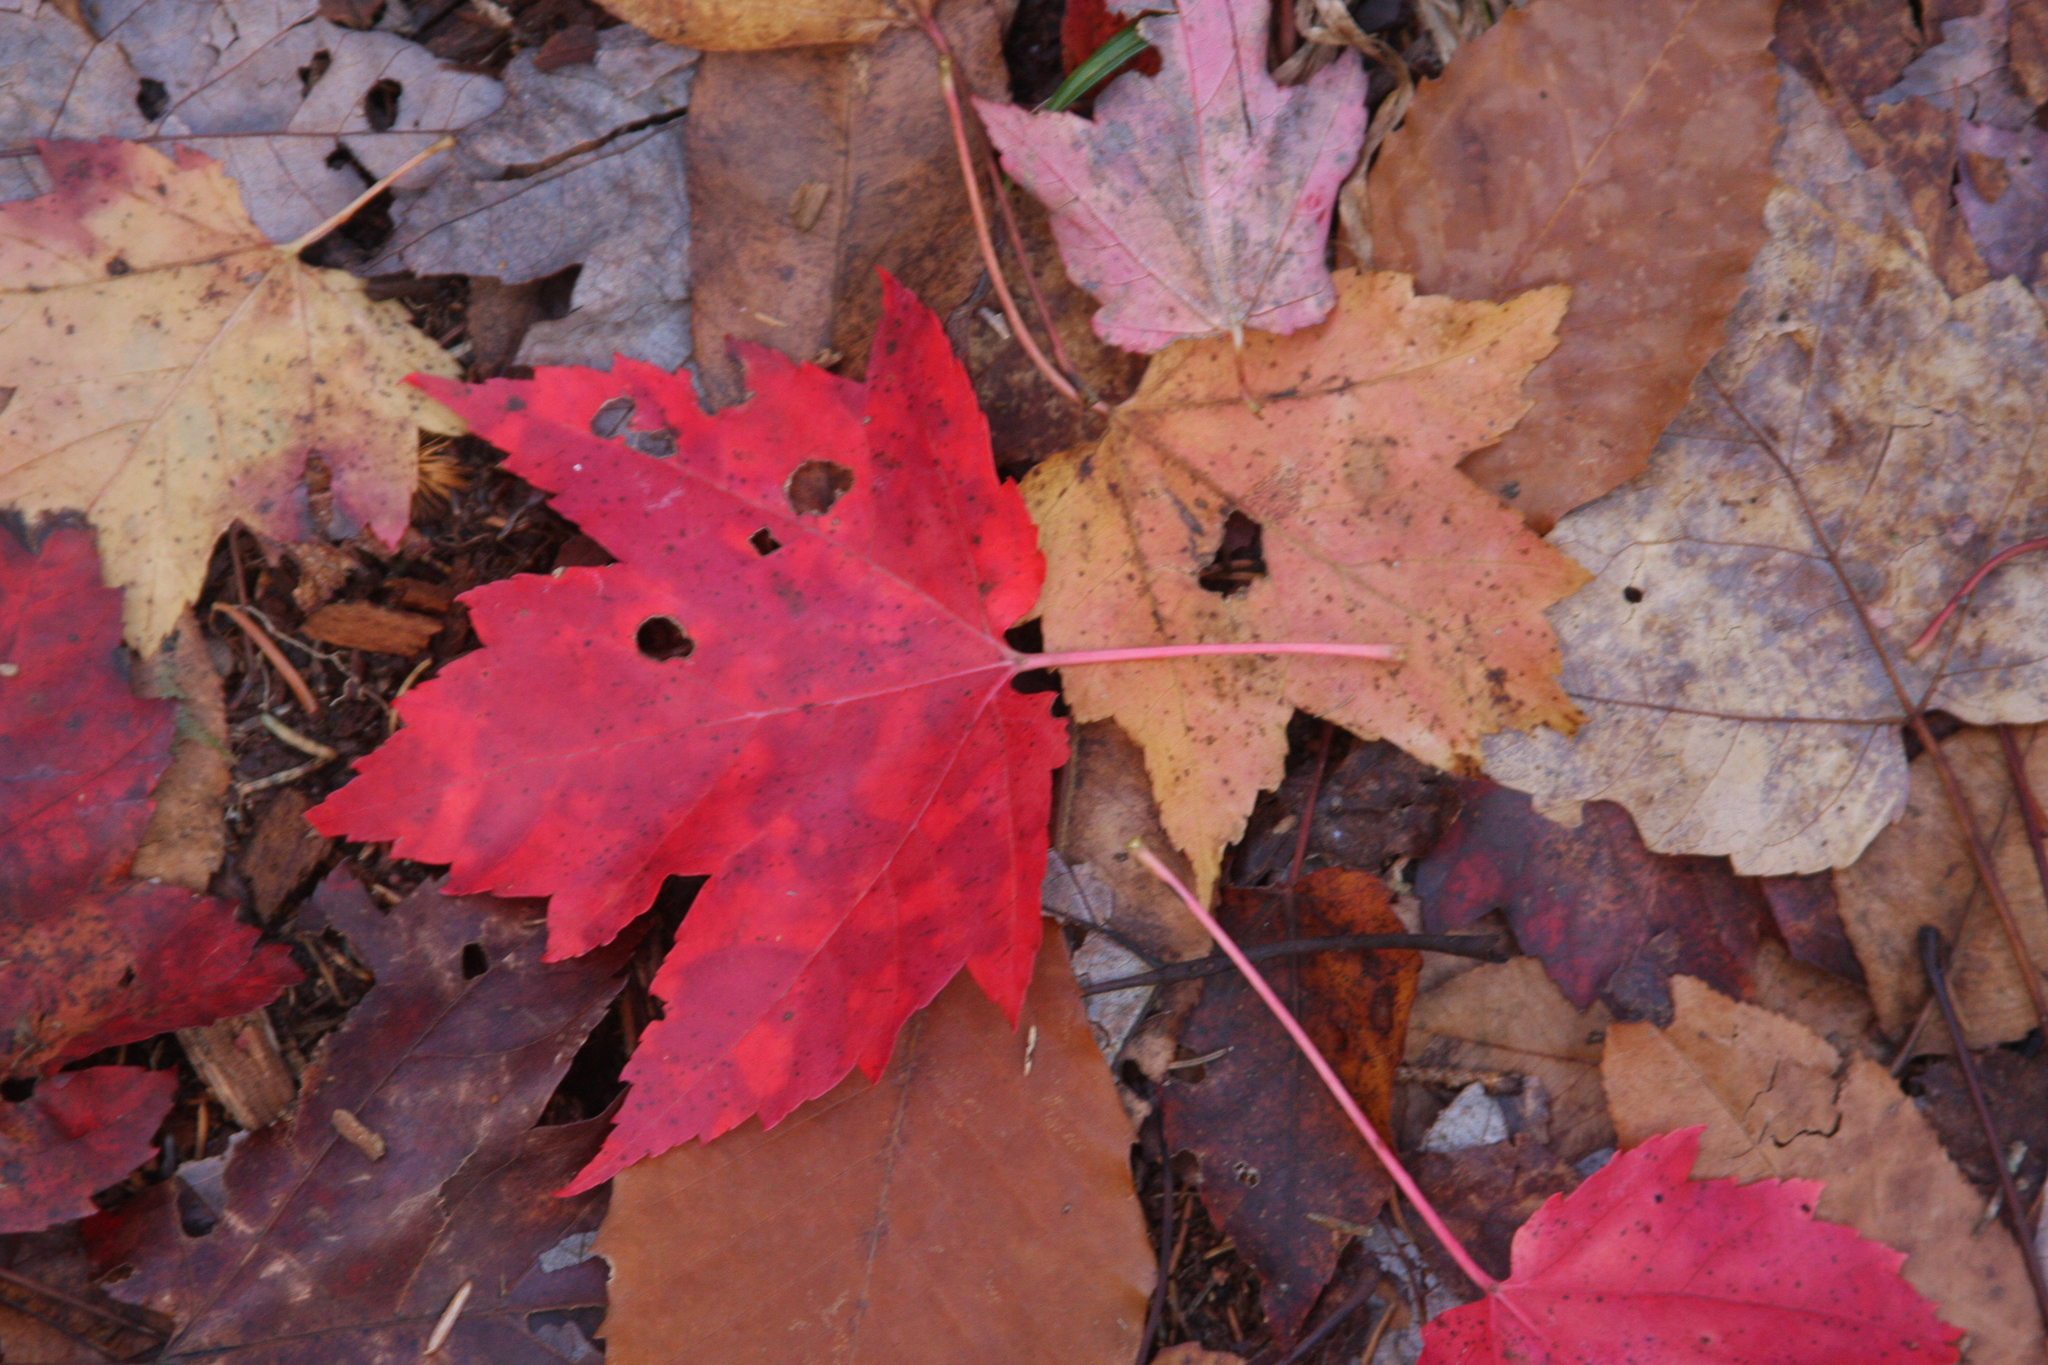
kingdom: Plantae
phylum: Tracheophyta
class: Magnoliopsida
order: Sapindales
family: Sapindaceae
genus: Acer
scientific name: Acer rubrum
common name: Red maple
